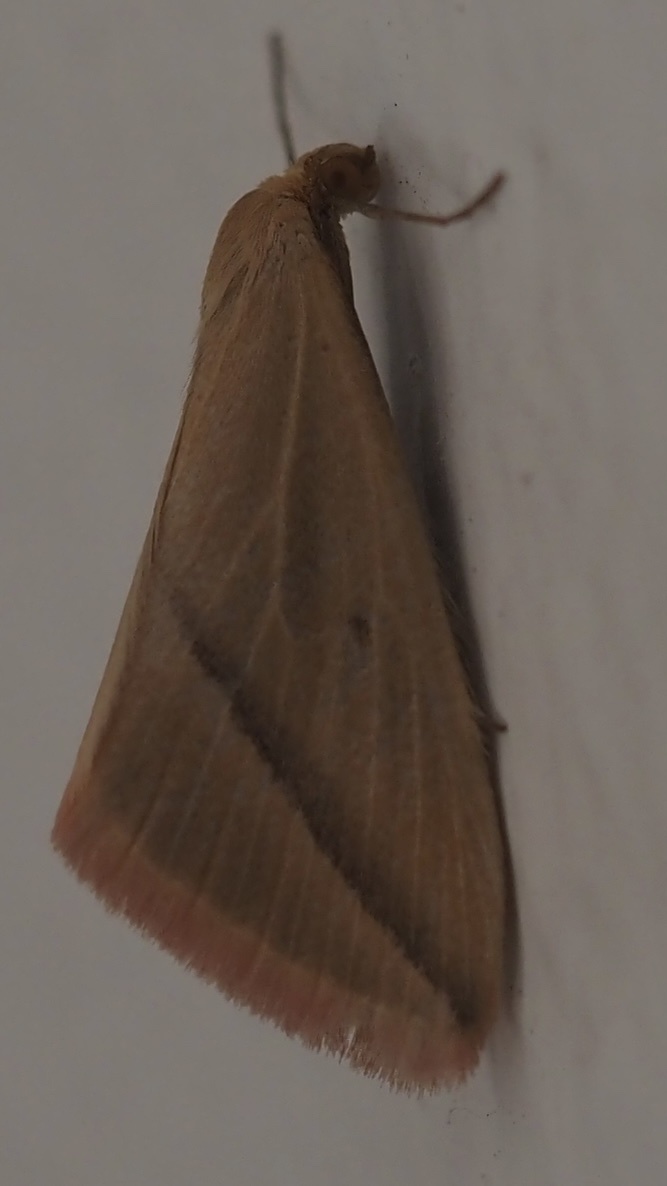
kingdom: Animalia
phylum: Arthropoda
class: Insecta
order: Lepidoptera
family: Geometridae
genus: Rhodometra
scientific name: Rhodometra sacraria
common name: Vestal
